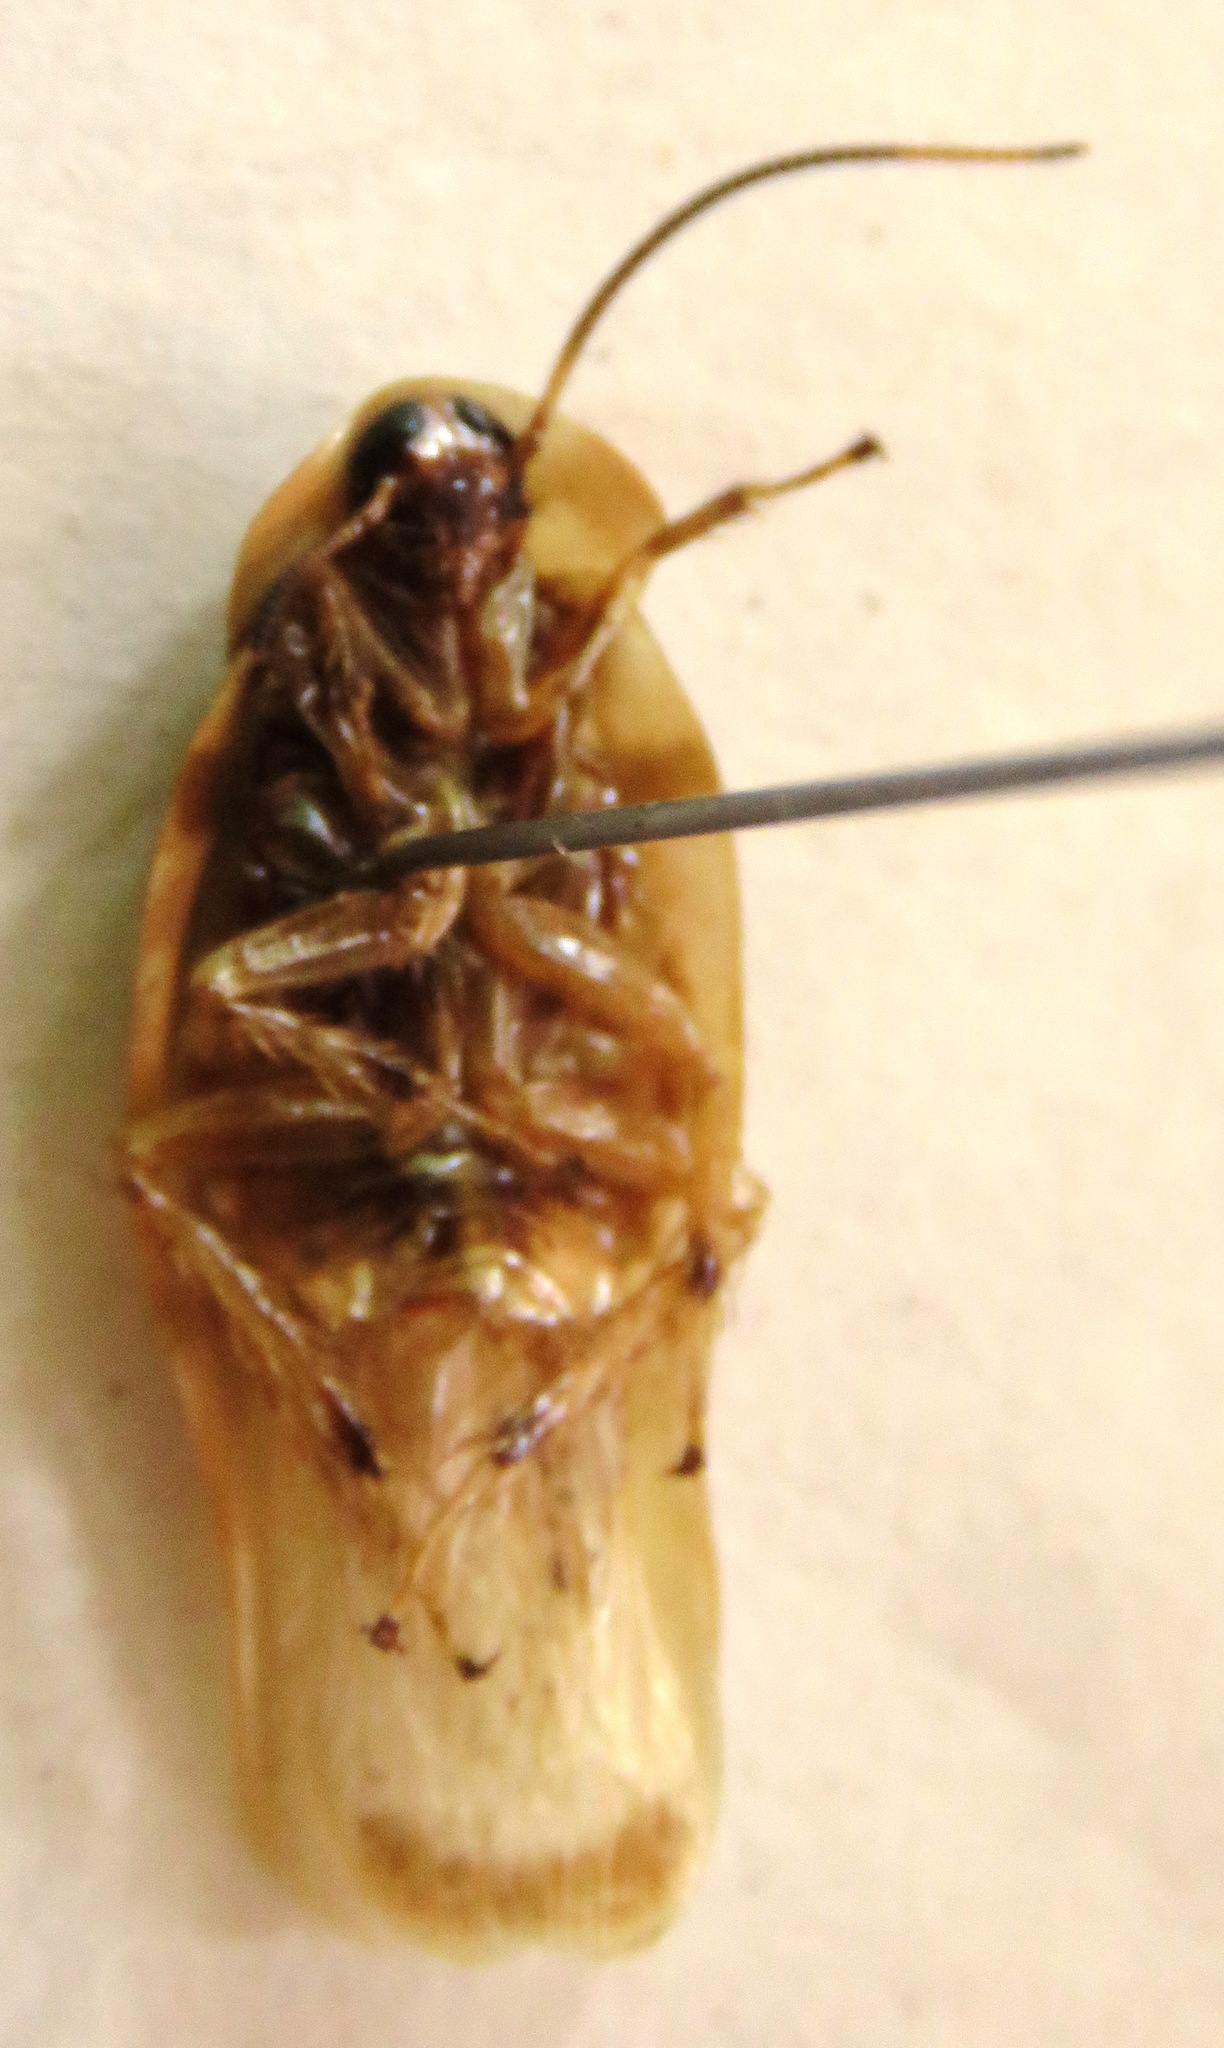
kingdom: Animalia
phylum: Arthropoda
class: Insecta
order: Blattodea
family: Blaberidae
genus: Achroblatta
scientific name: Achroblatta luteola
